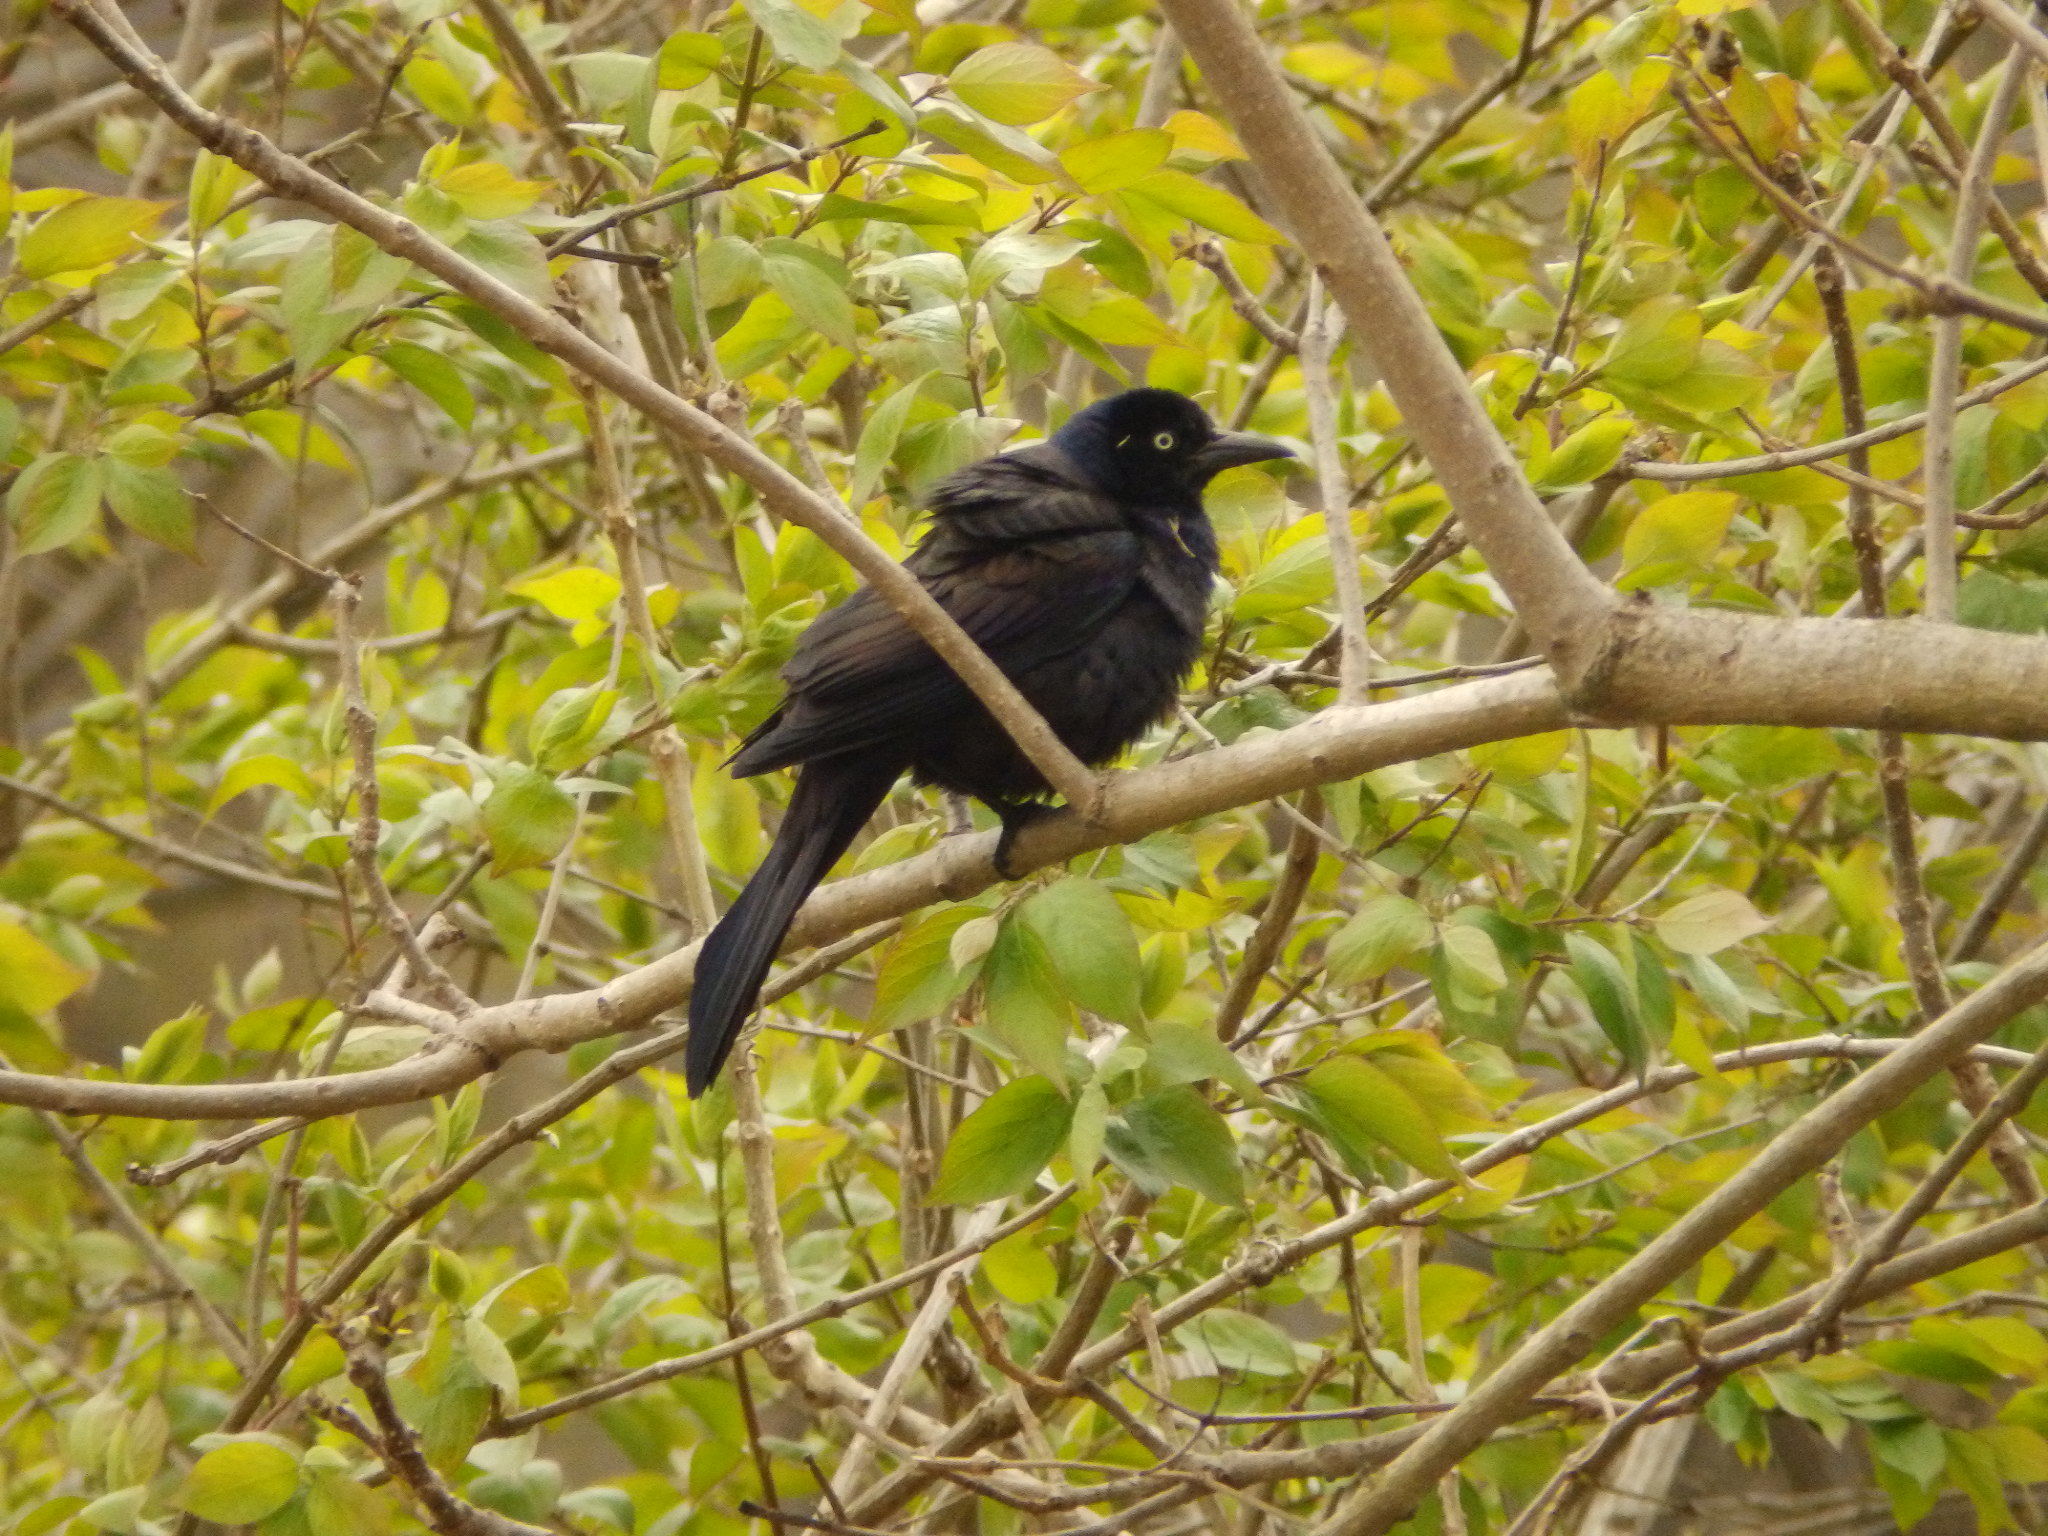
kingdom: Animalia
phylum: Chordata
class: Aves
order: Passeriformes
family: Icteridae
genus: Quiscalus
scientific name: Quiscalus quiscula
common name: Common grackle
